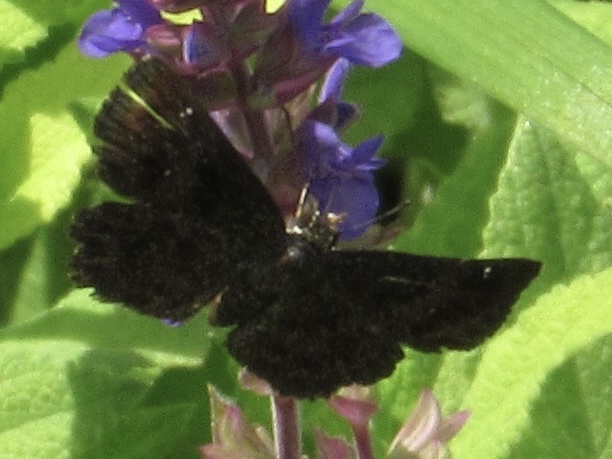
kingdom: Animalia
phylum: Arthropoda
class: Insecta
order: Lepidoptera
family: Hesperiidae
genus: Staphylus
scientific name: Staphylus mazans
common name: Mazans scallopwing
